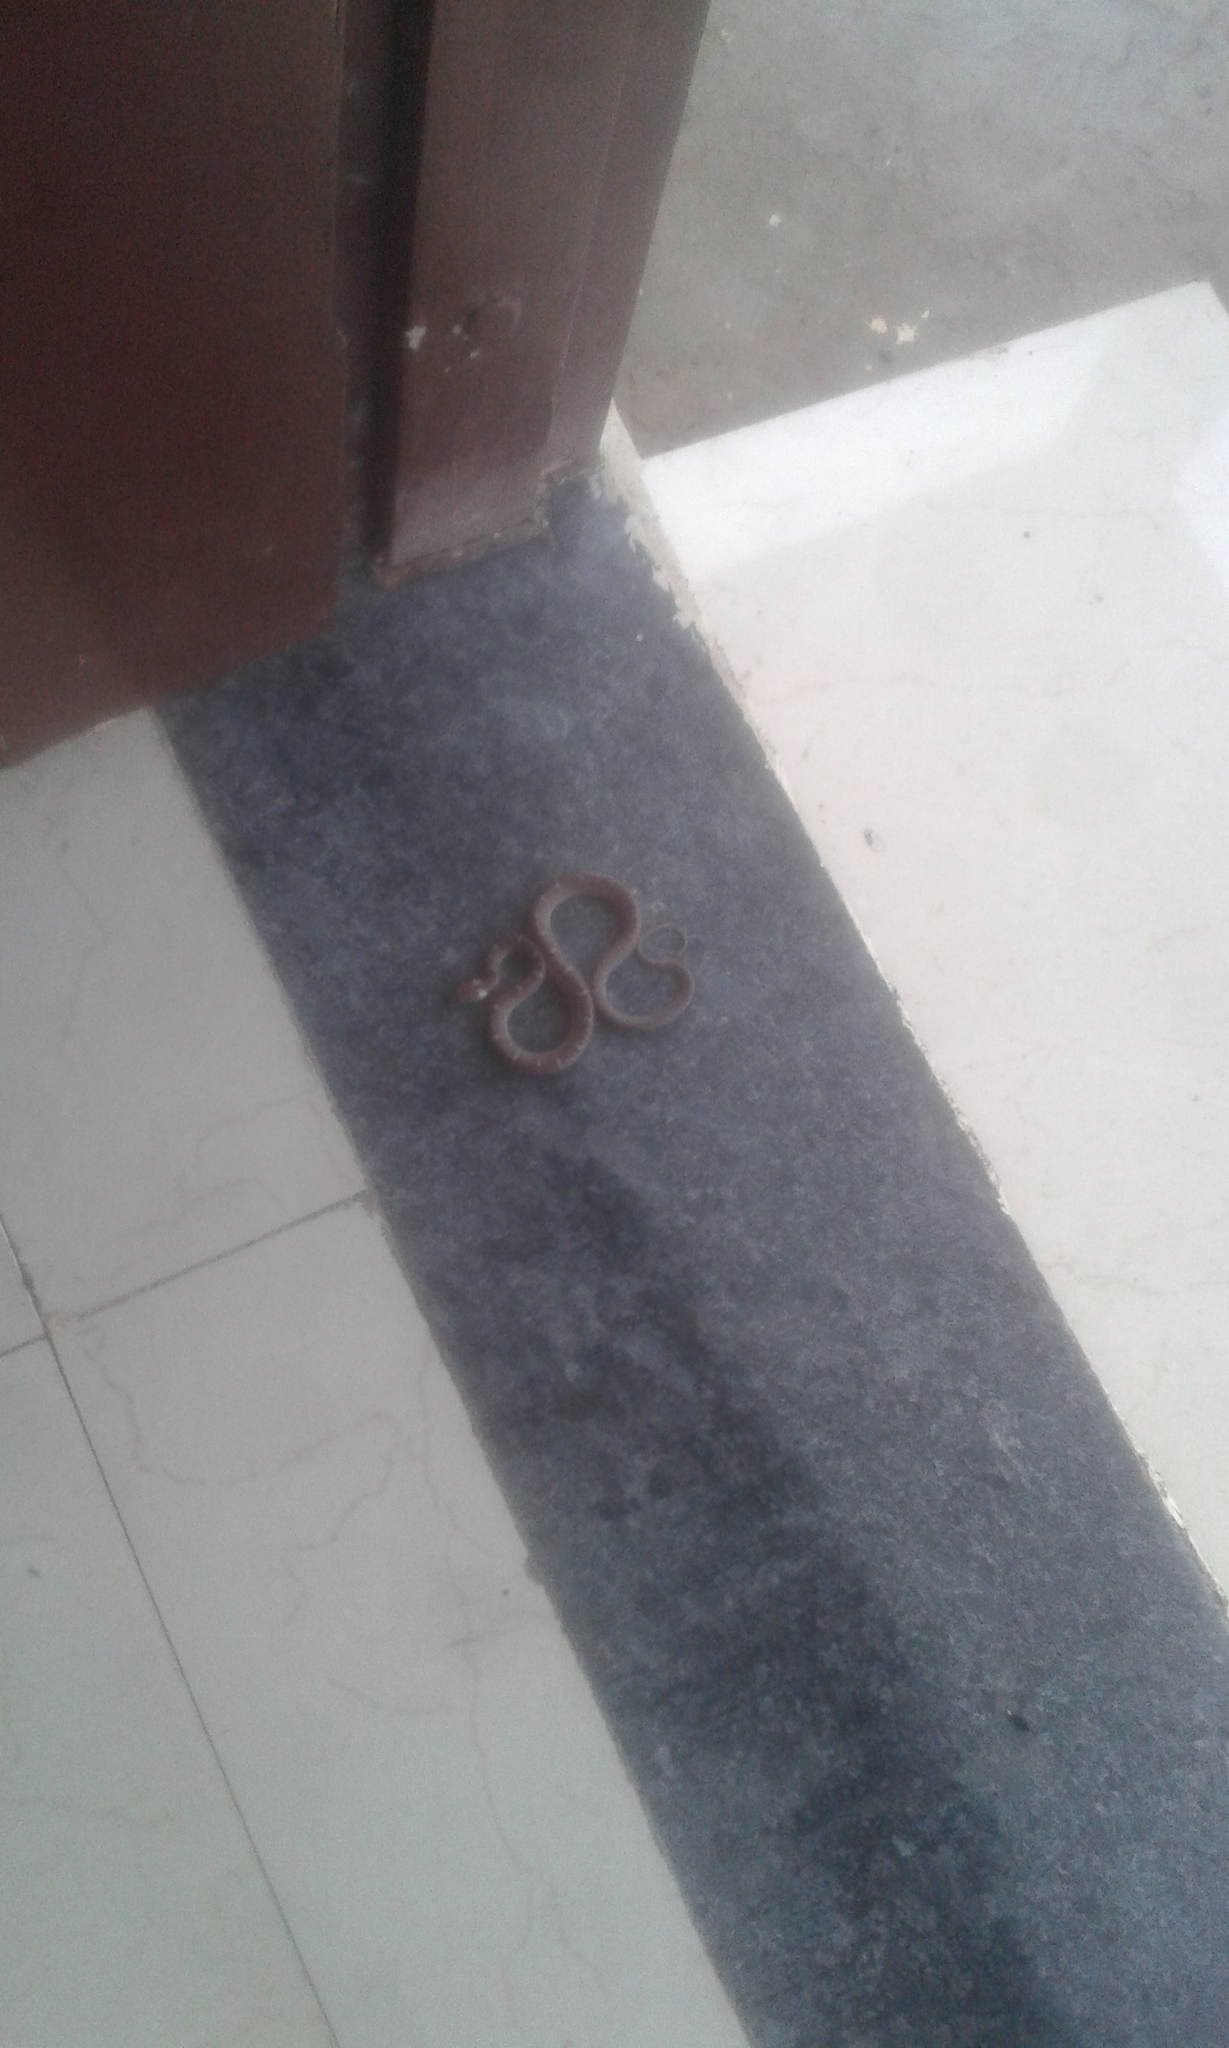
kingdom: Animalia
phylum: Chordata
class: Squamata
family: Colubridae
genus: Lycodon
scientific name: Lycodon aulicus
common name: Common wolf snake
